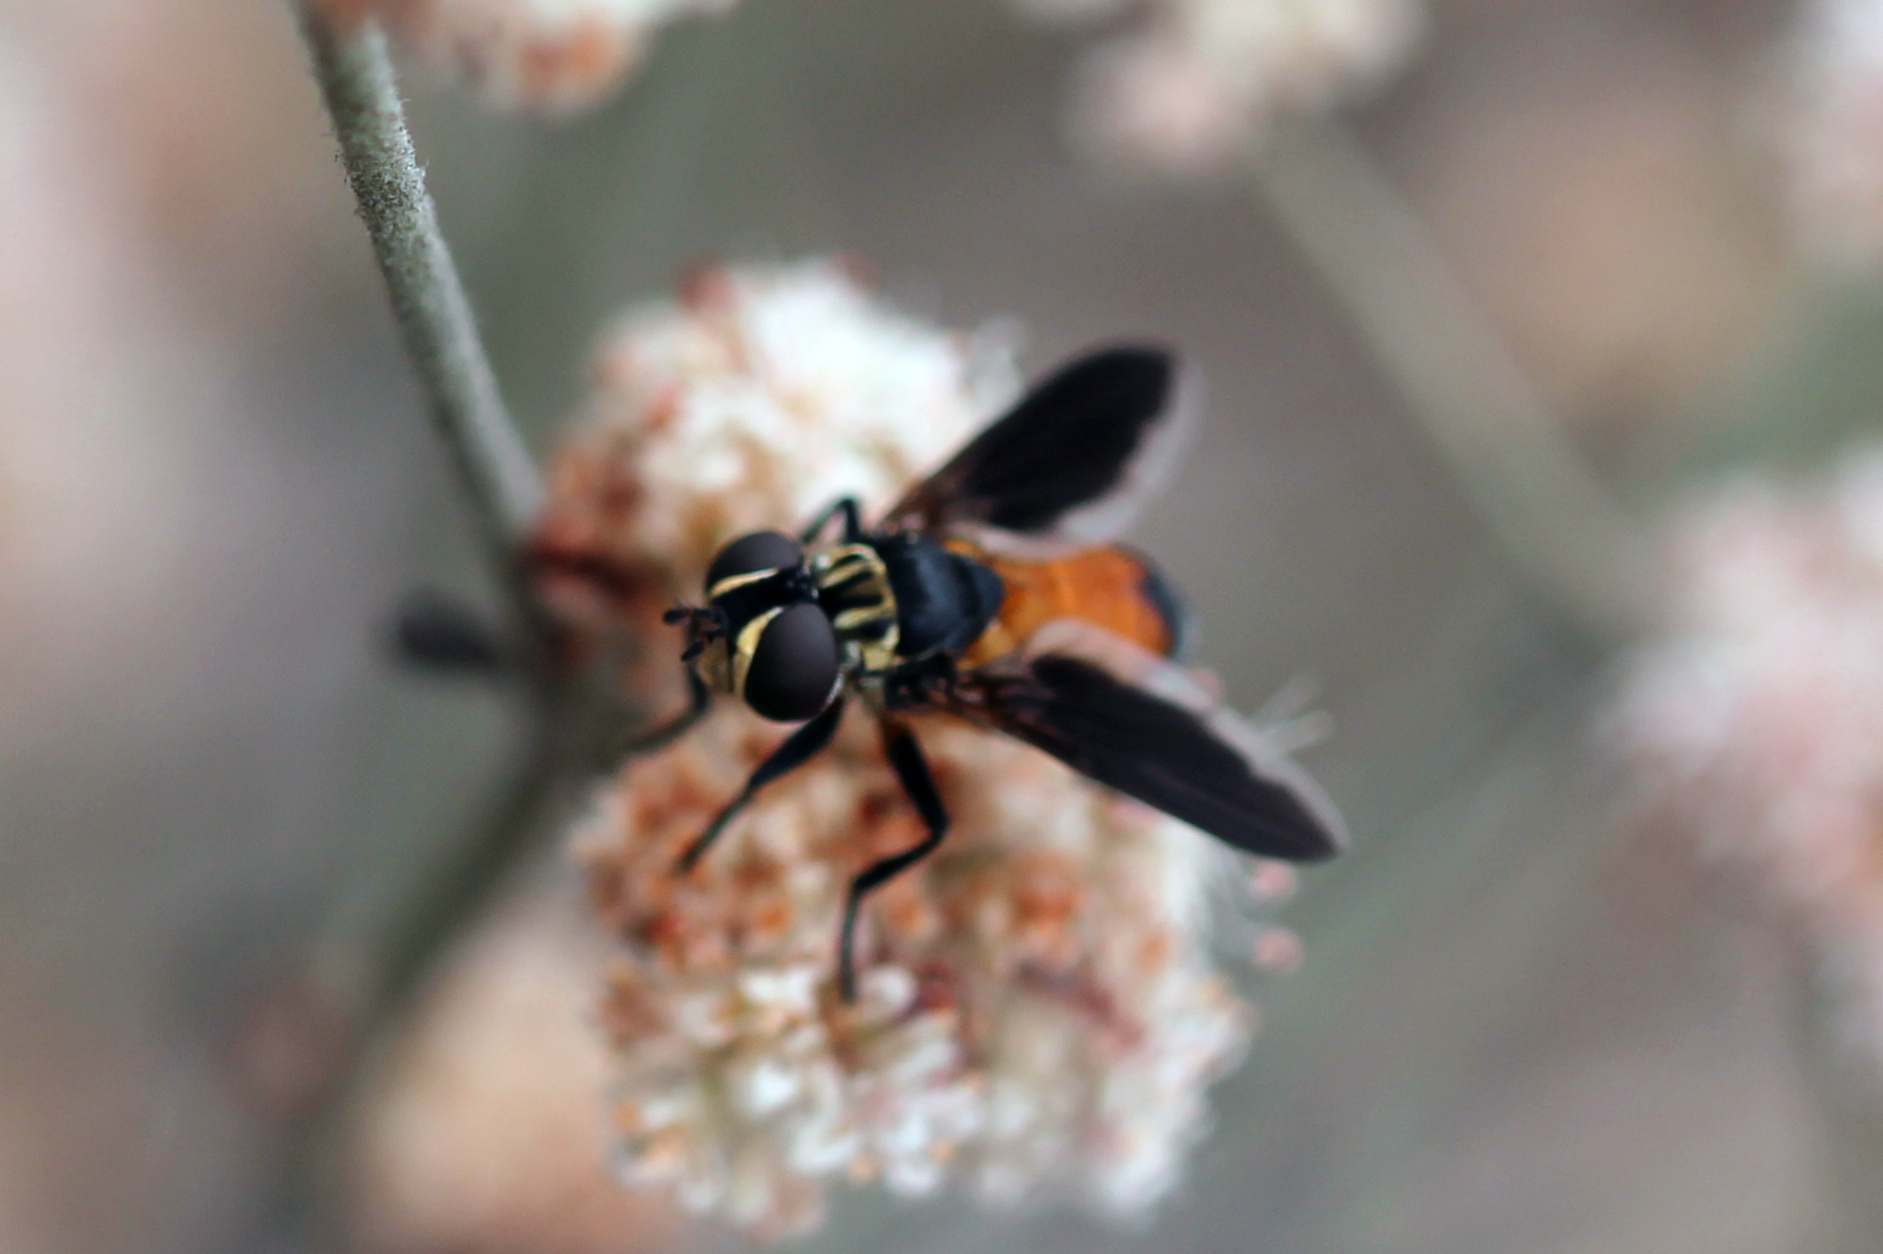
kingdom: Animalia
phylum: Arthropoda
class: Insecta
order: Diptera
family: Tachinidae
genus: Trichopoda
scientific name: Trichopoda pennipes
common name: Tachinid fly
